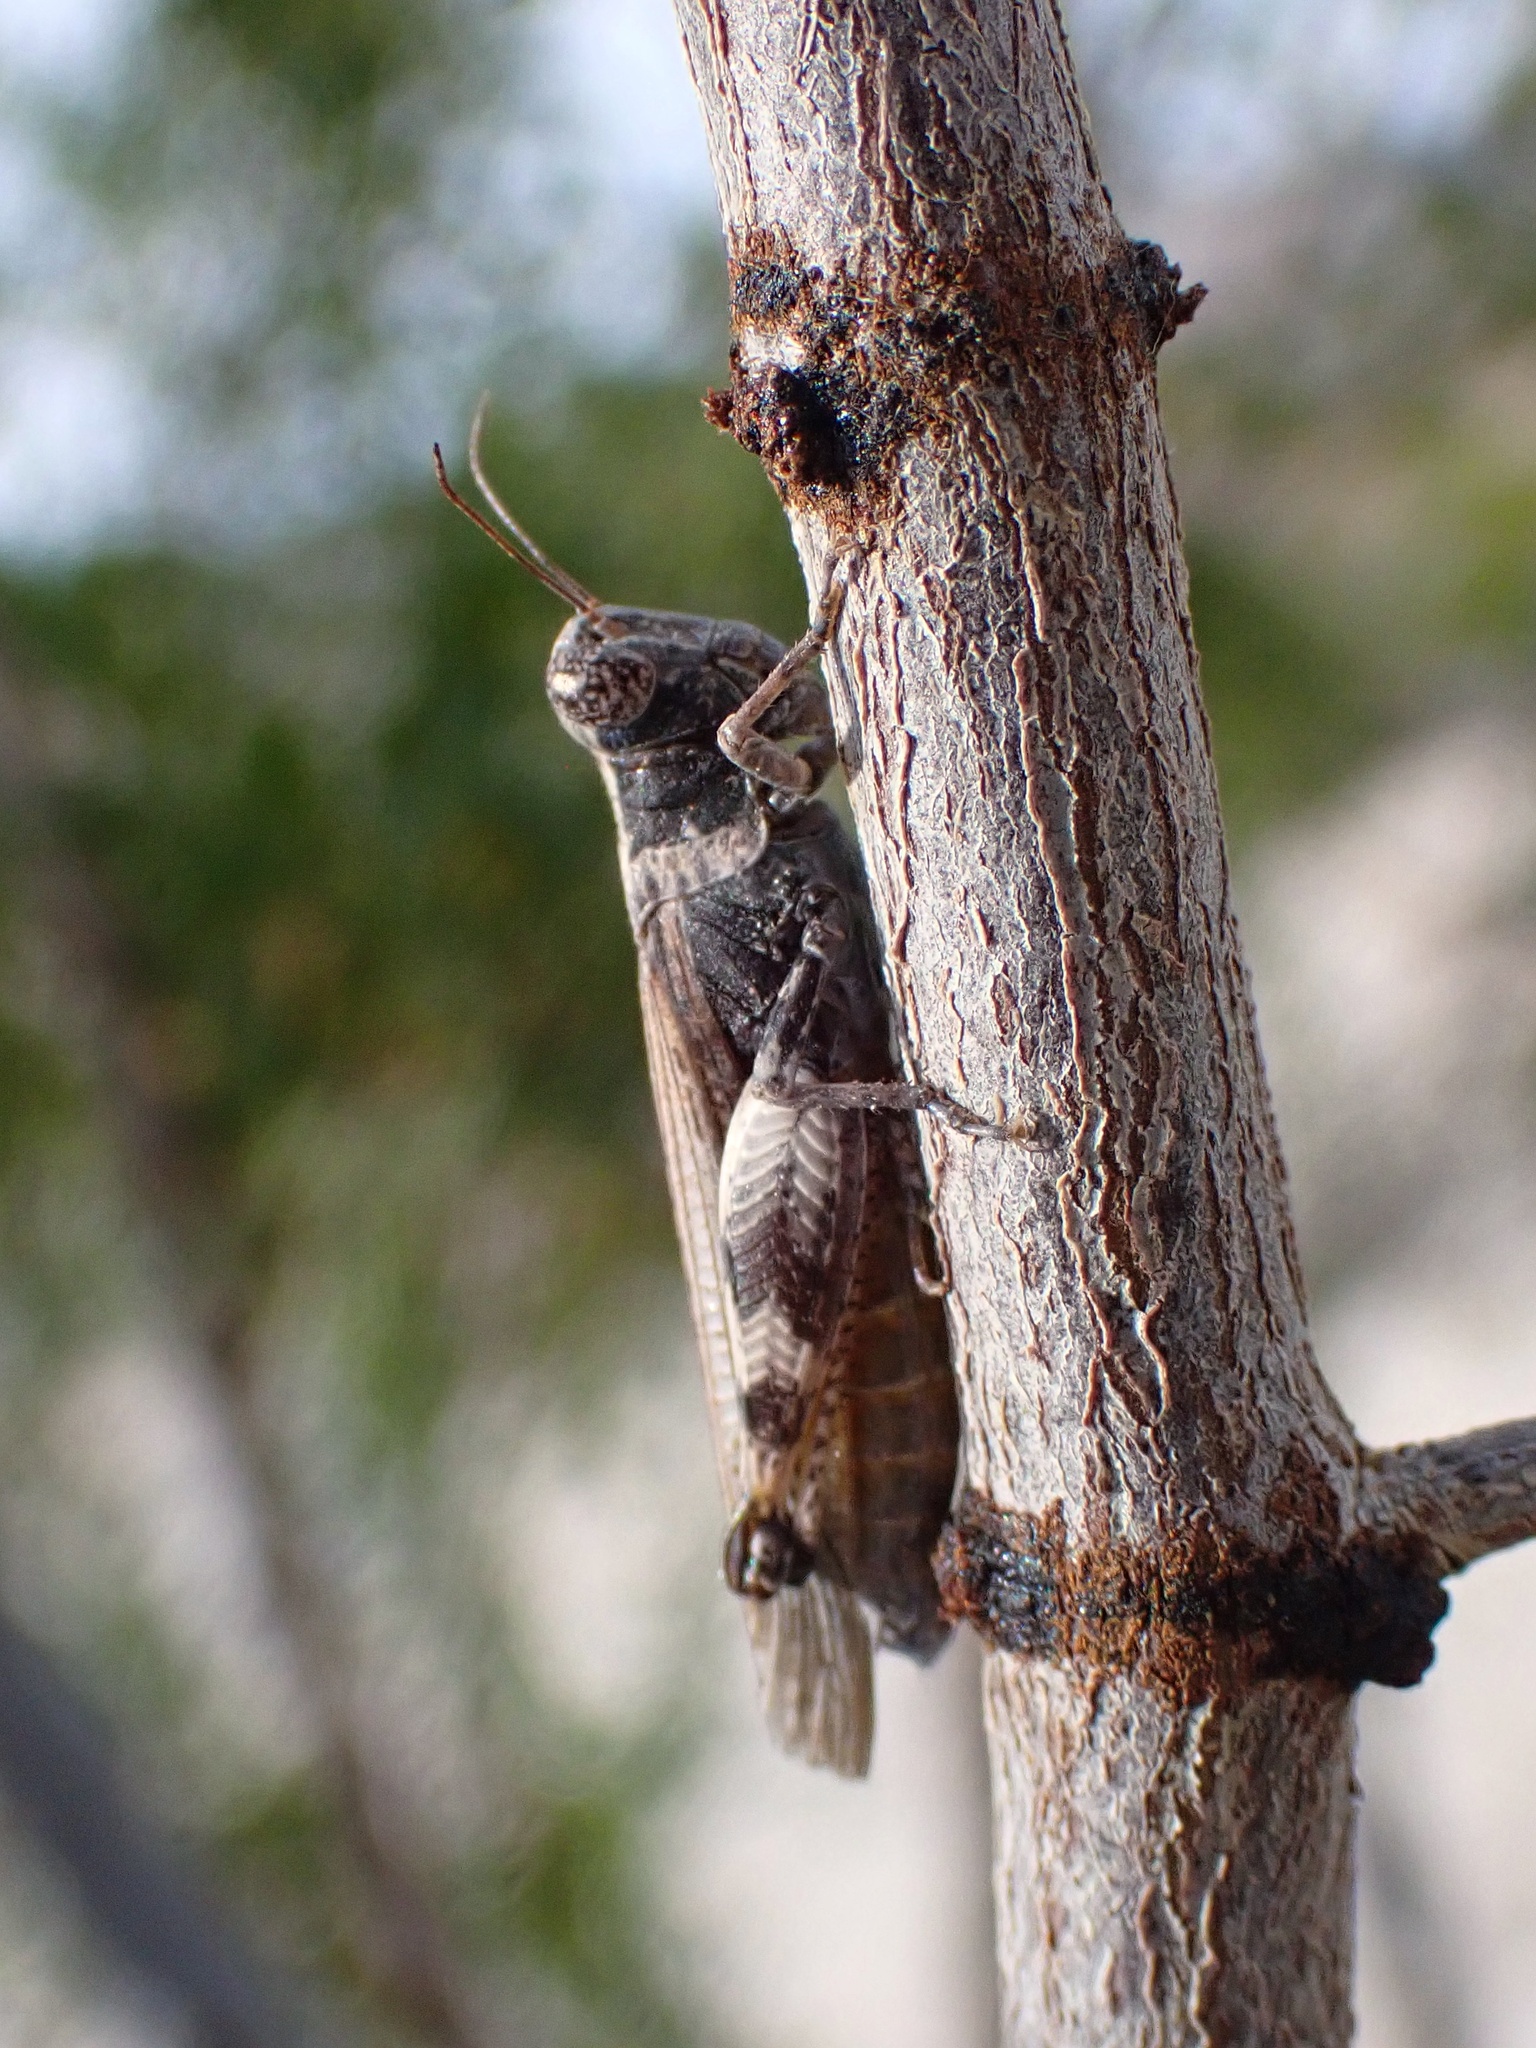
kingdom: Animalia
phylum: Arthropoda
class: Insecta
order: Orthoptera
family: Acrididae
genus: Ligurotettix
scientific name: Ligurotettix coquilletti
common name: Desert clicker grasshopper
